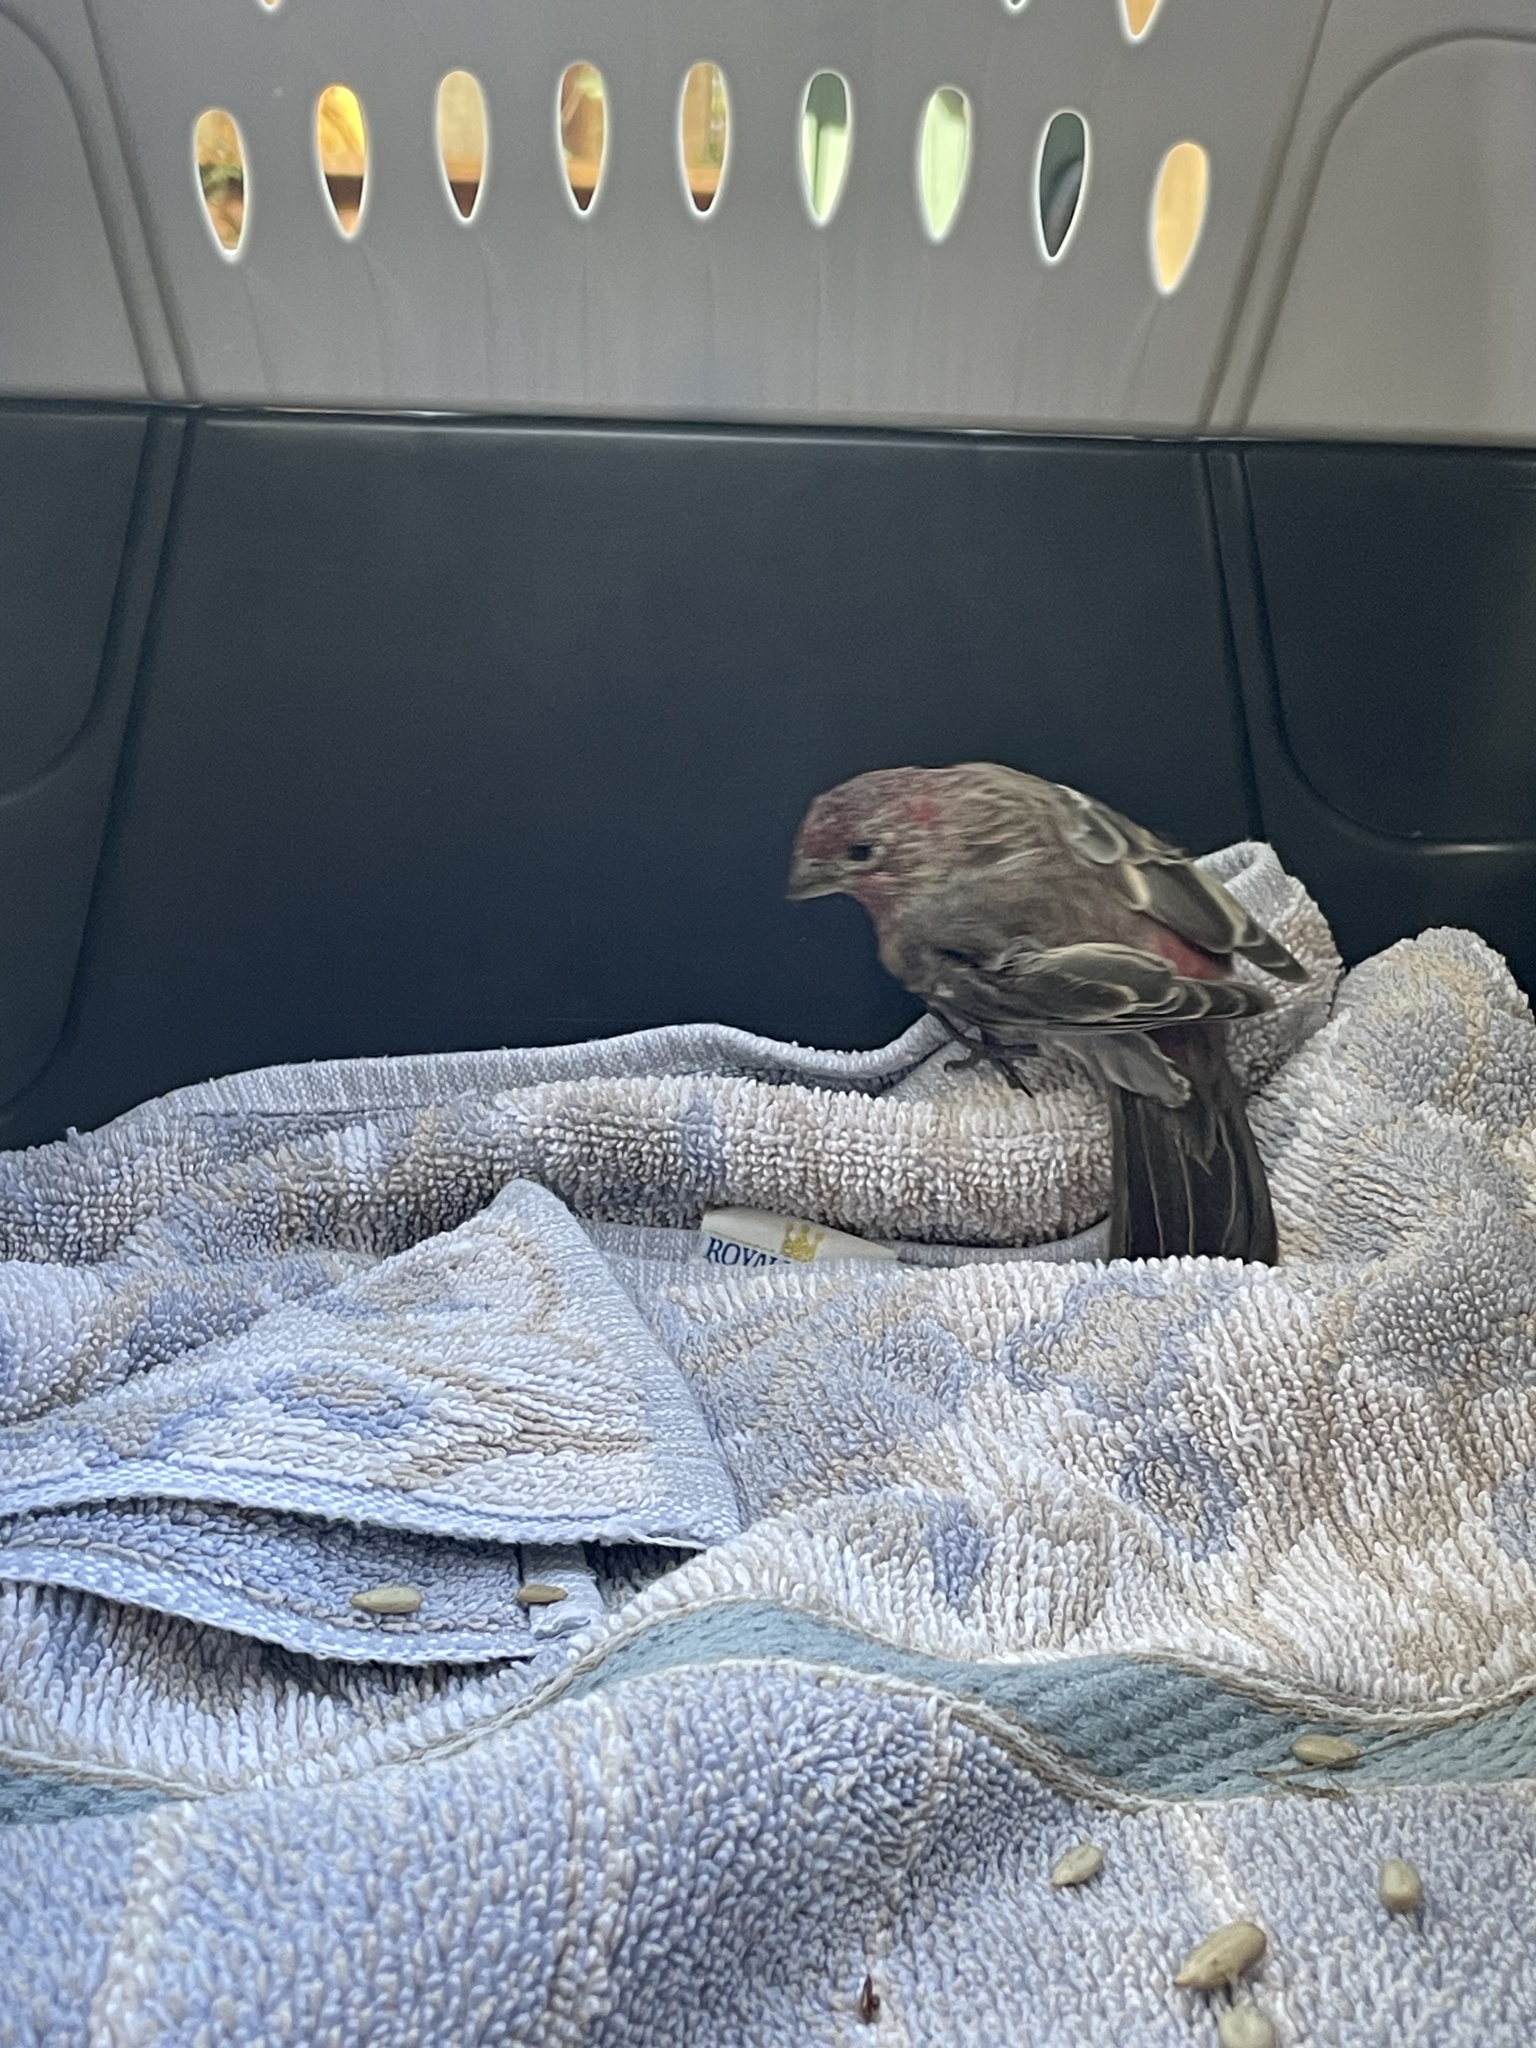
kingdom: Animalia
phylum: Chordata
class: Aves
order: Passeriformes
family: Fringillidae
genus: Haemorhous
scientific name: Haemorhous mexicanus
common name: House finch
